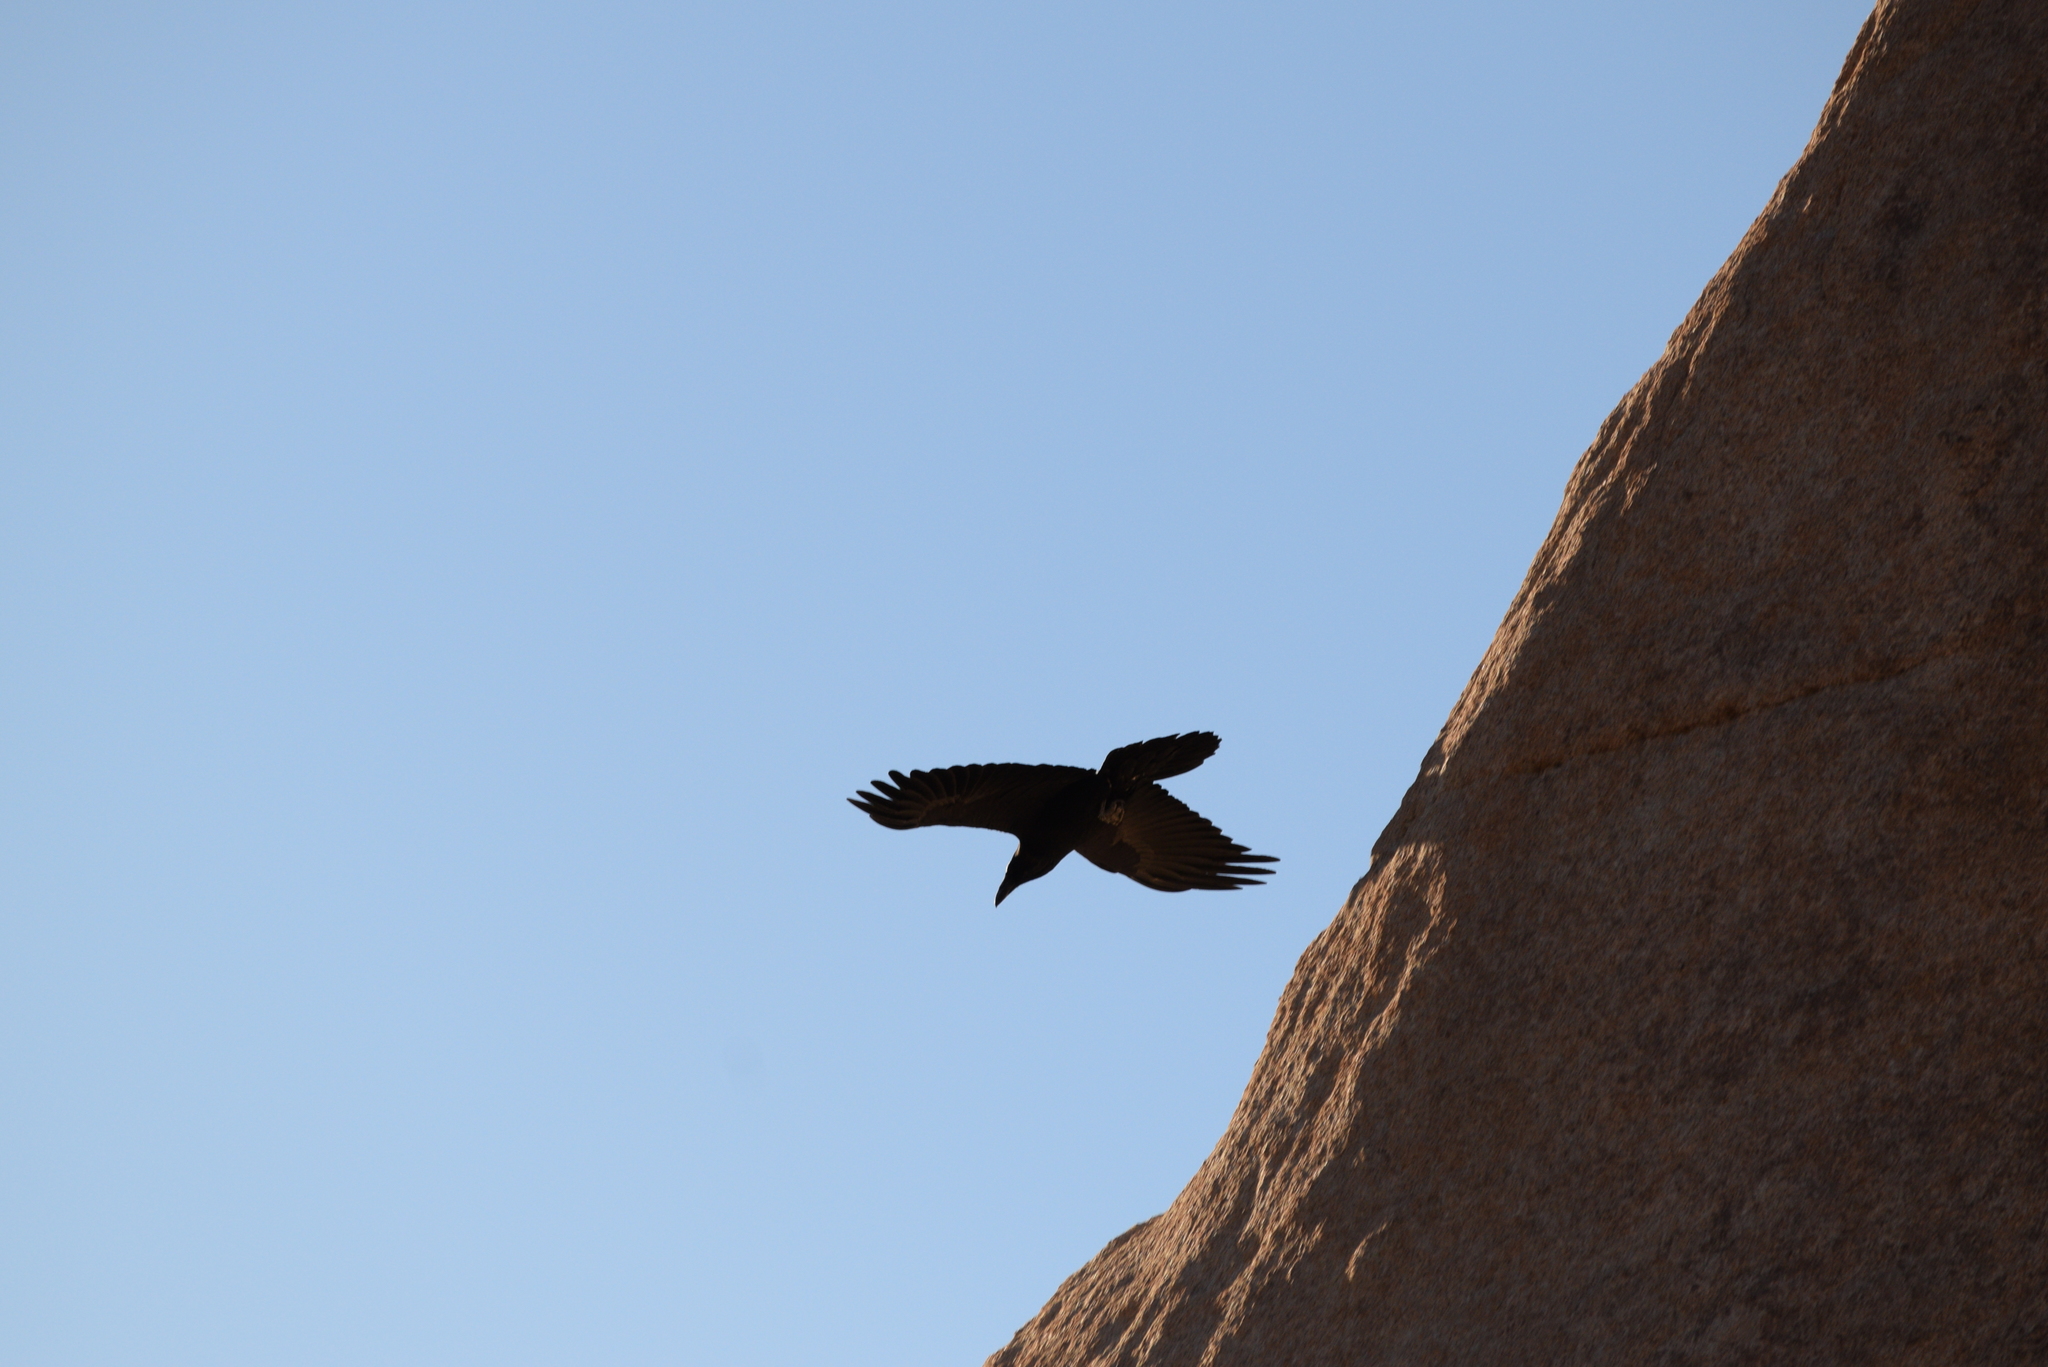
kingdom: Animalia
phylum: Chordata
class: Aves
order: Passeriformes
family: Corvidae
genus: Corvus
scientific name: Corvus corax
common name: Common raven
